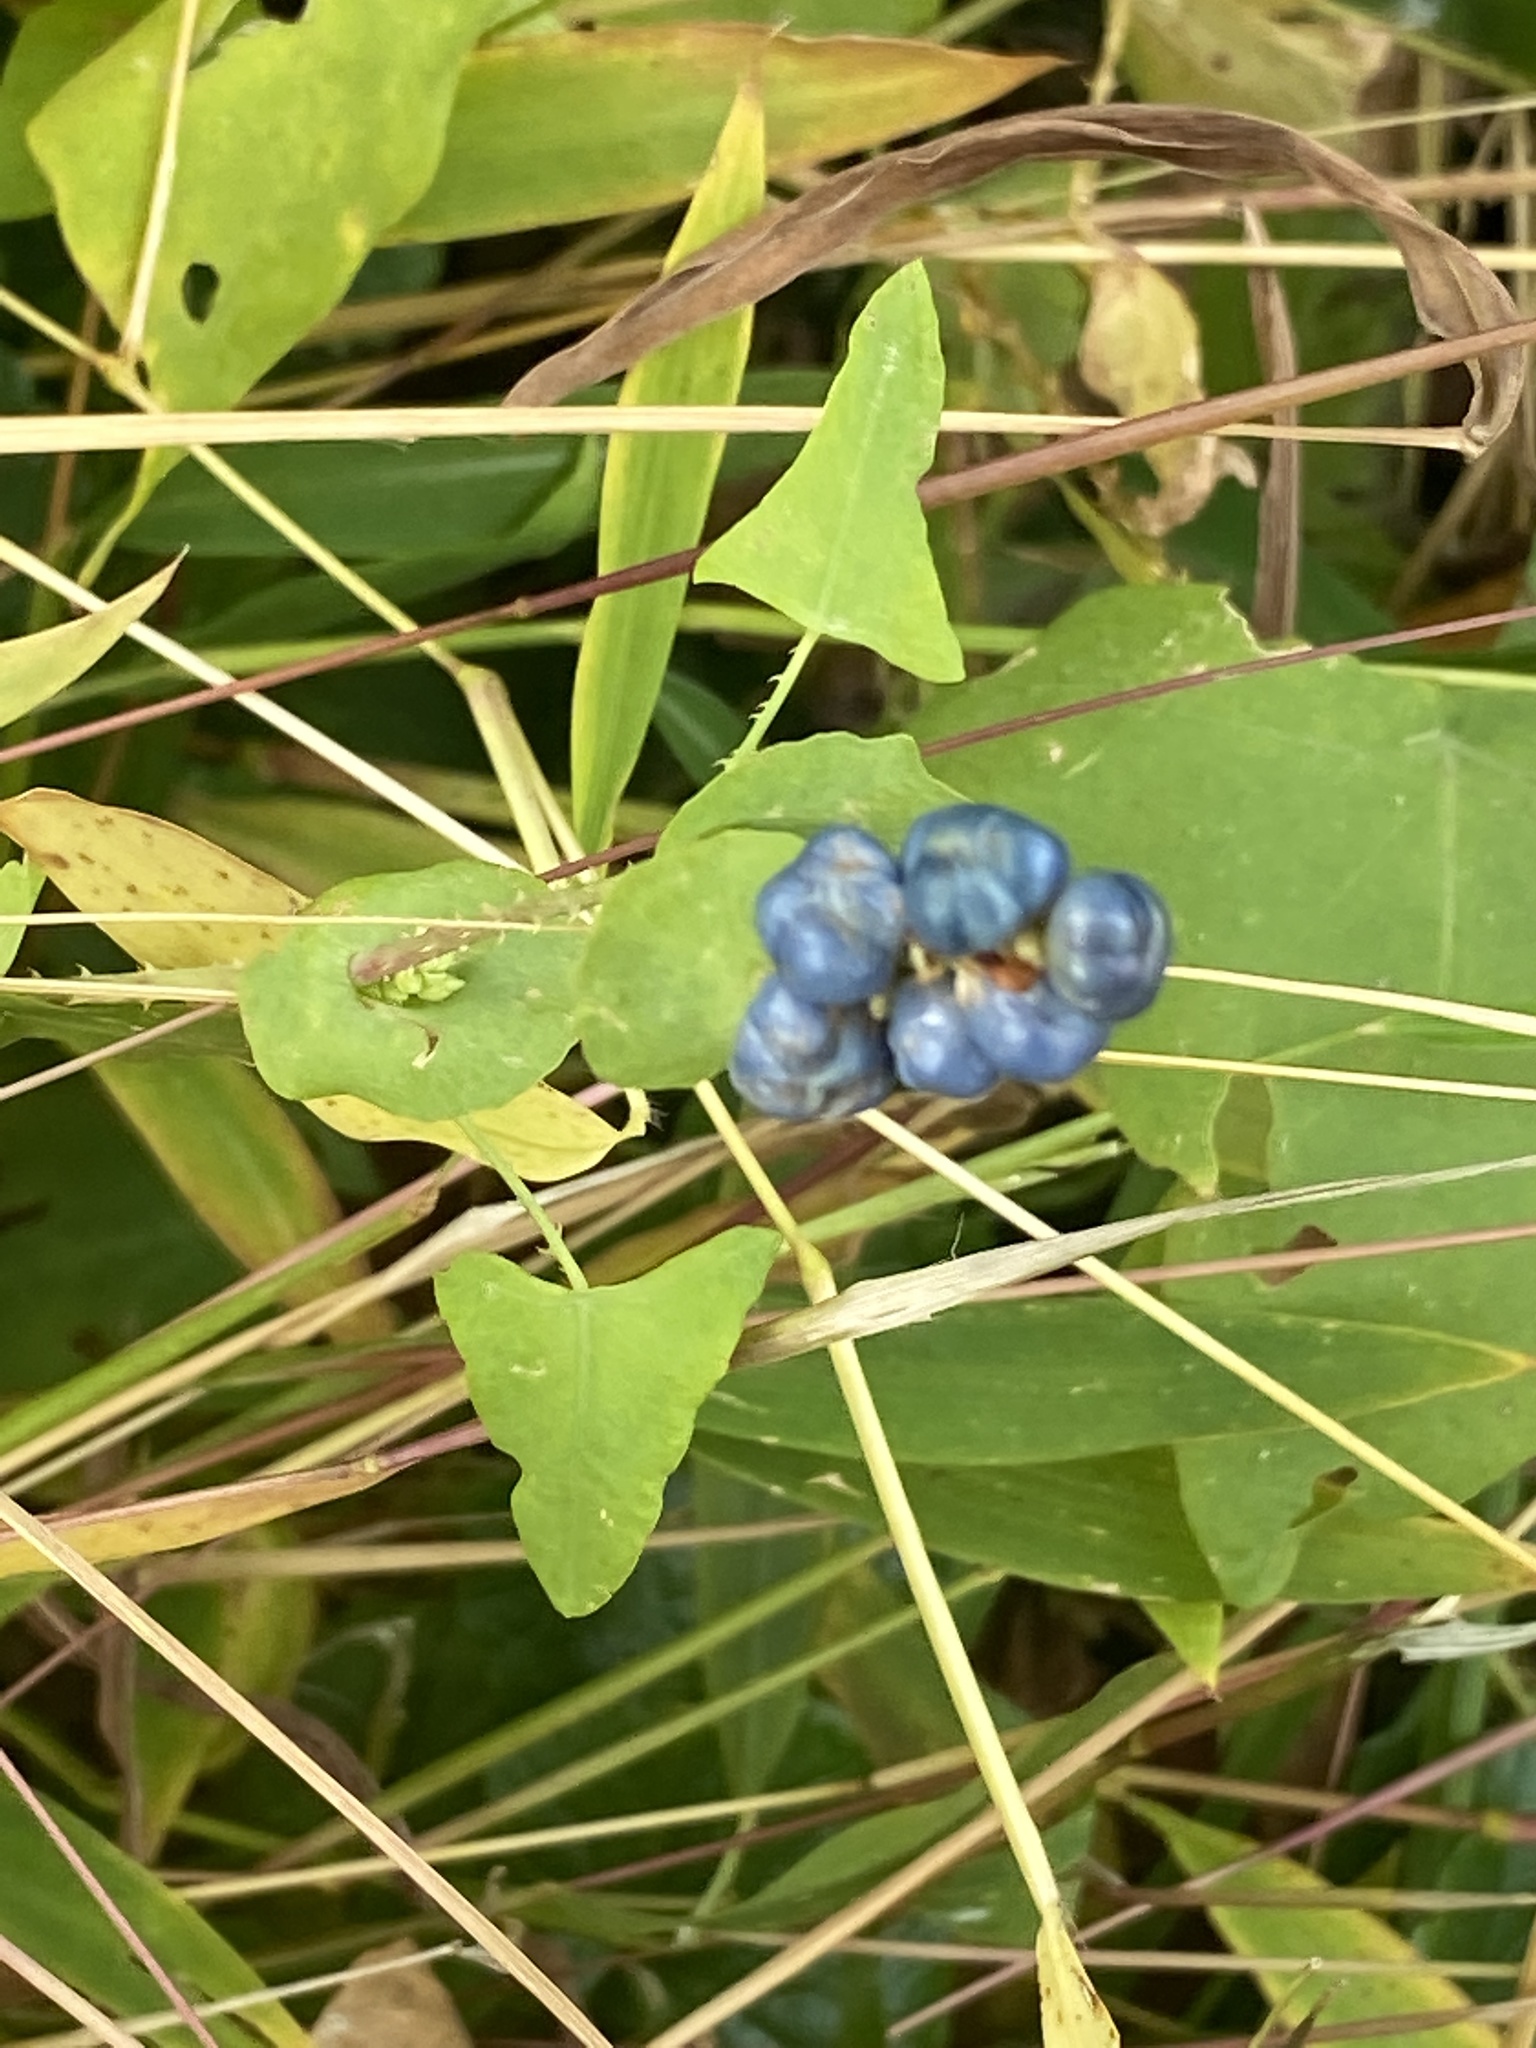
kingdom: Plantae
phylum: Tracheophyta
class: Magnoliopsida
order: Caryophyllales
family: Polygonaceae
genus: Persicaria
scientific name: Persicaria perfoliata
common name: Asiatic tearthumb
